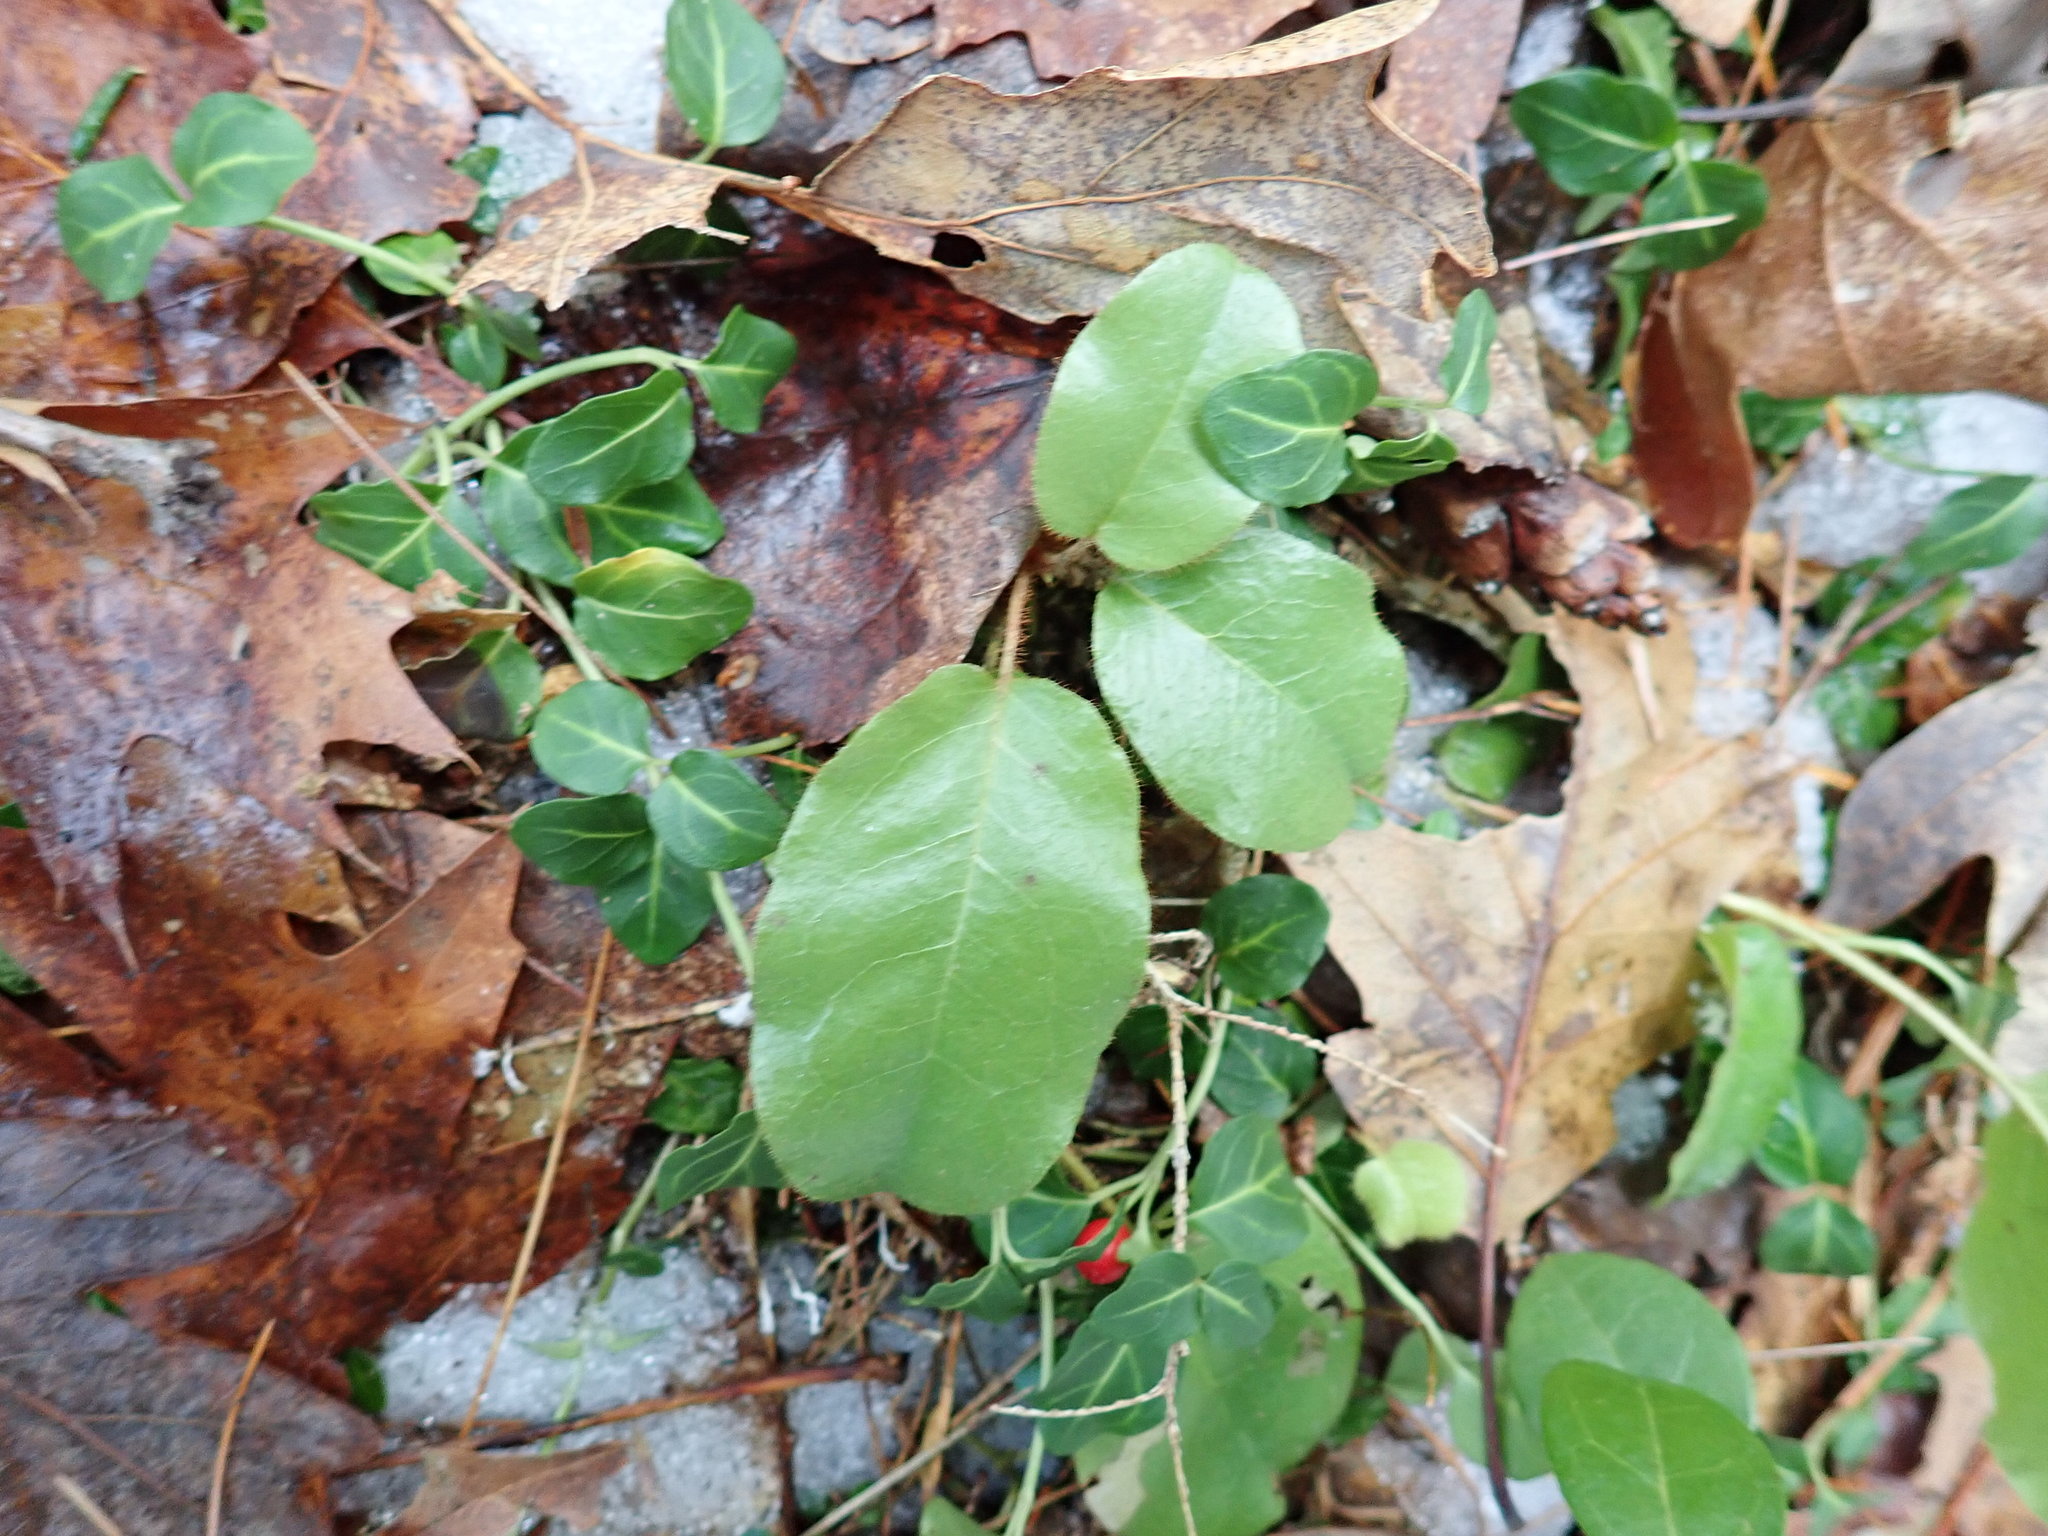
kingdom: Plantae
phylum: Tracheophyta
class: Magnoliopsida
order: Ericales
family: Ericaceae
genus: Epigaea
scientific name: Epigaea repens
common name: Gravelroot
